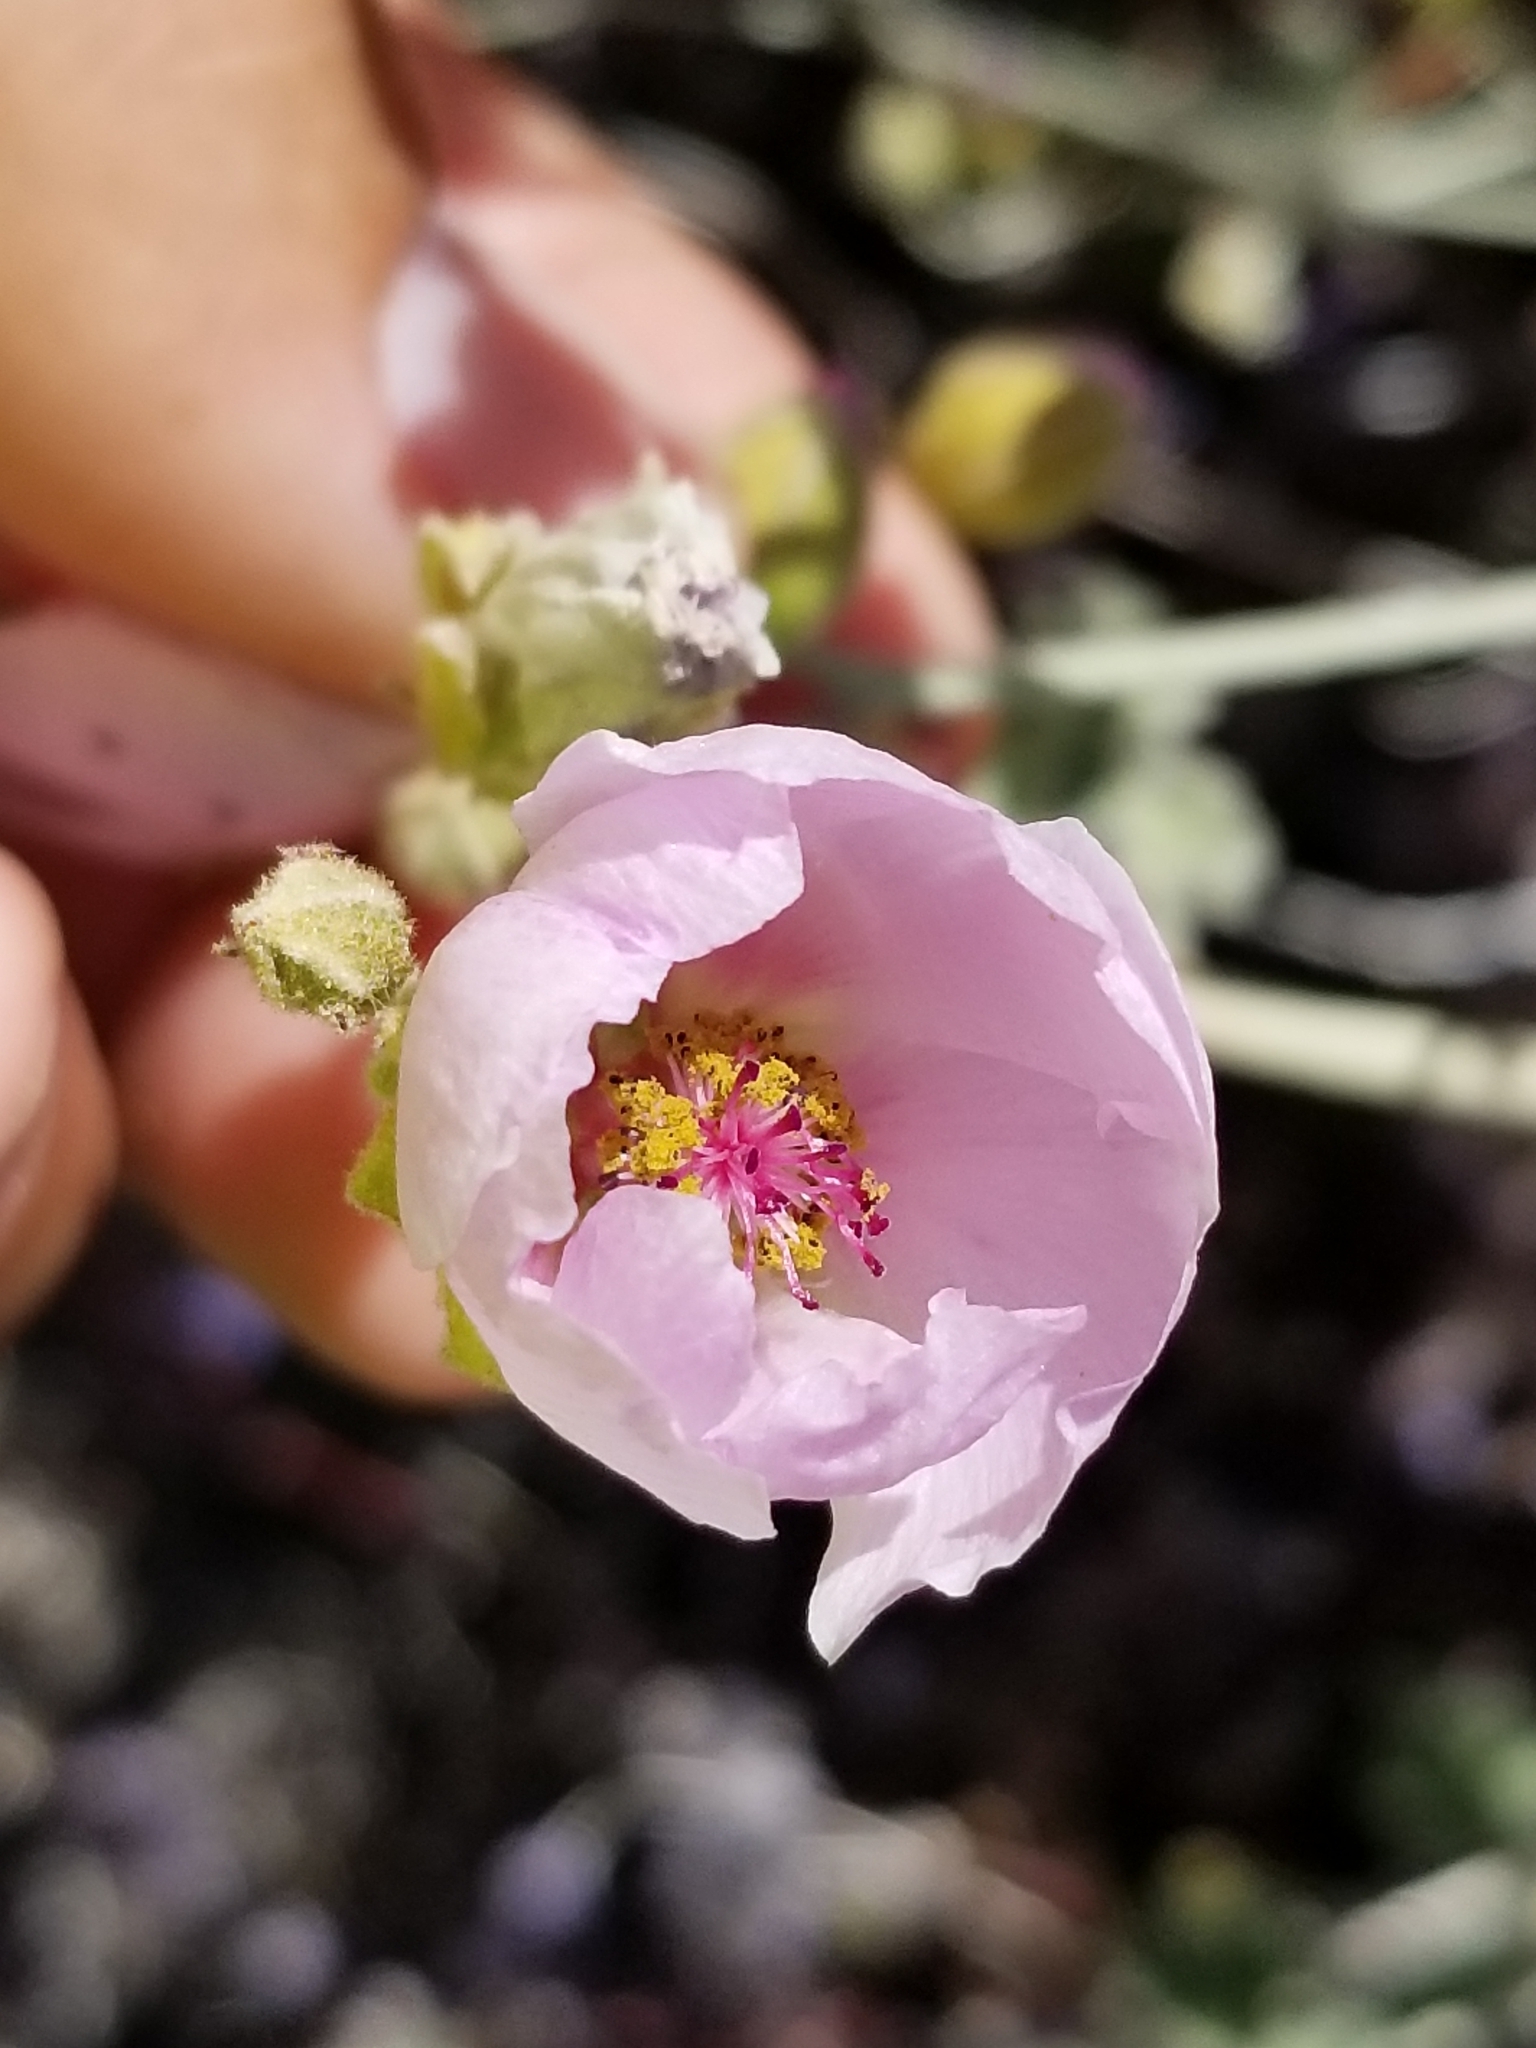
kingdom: Plantae
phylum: Tracheophyta
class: Magnoliopsida
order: Malvales
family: Malvaceae
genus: Sphaeralcea
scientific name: Sphaeralcea ambigua
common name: Apricot globe-mallow
